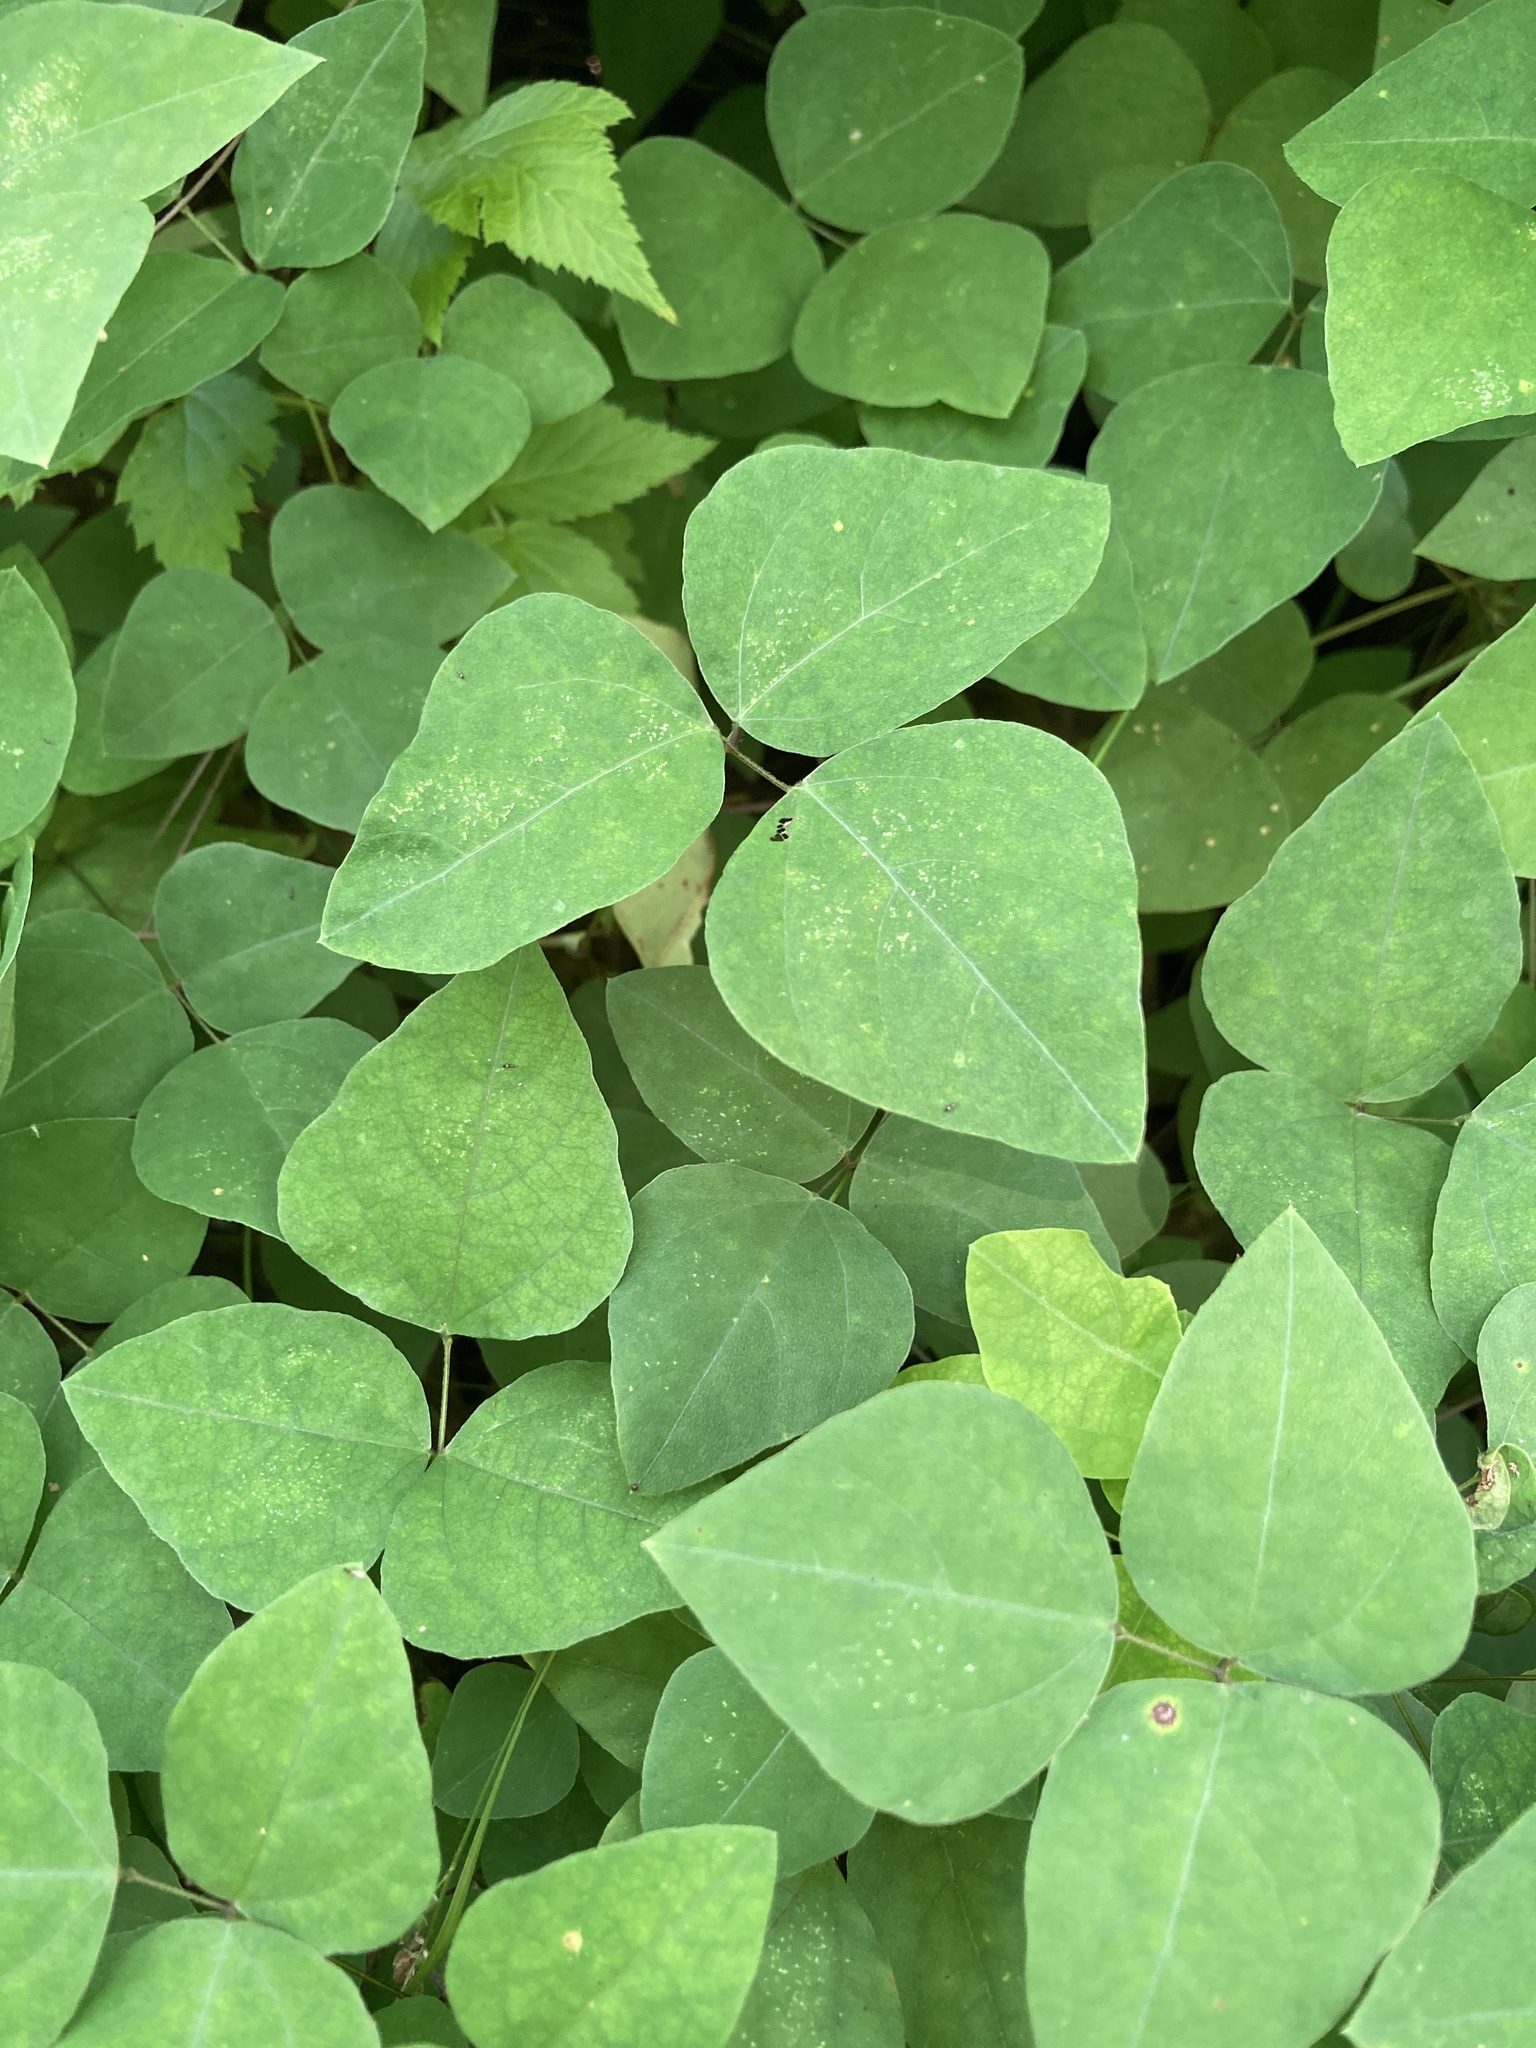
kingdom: Plantae
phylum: Tracheophyta
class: Magnoliopsida
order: Fabales
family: Fabaceae
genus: Amphicarpaea
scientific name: Amphicarpaea bracteata
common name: American hog peanut
